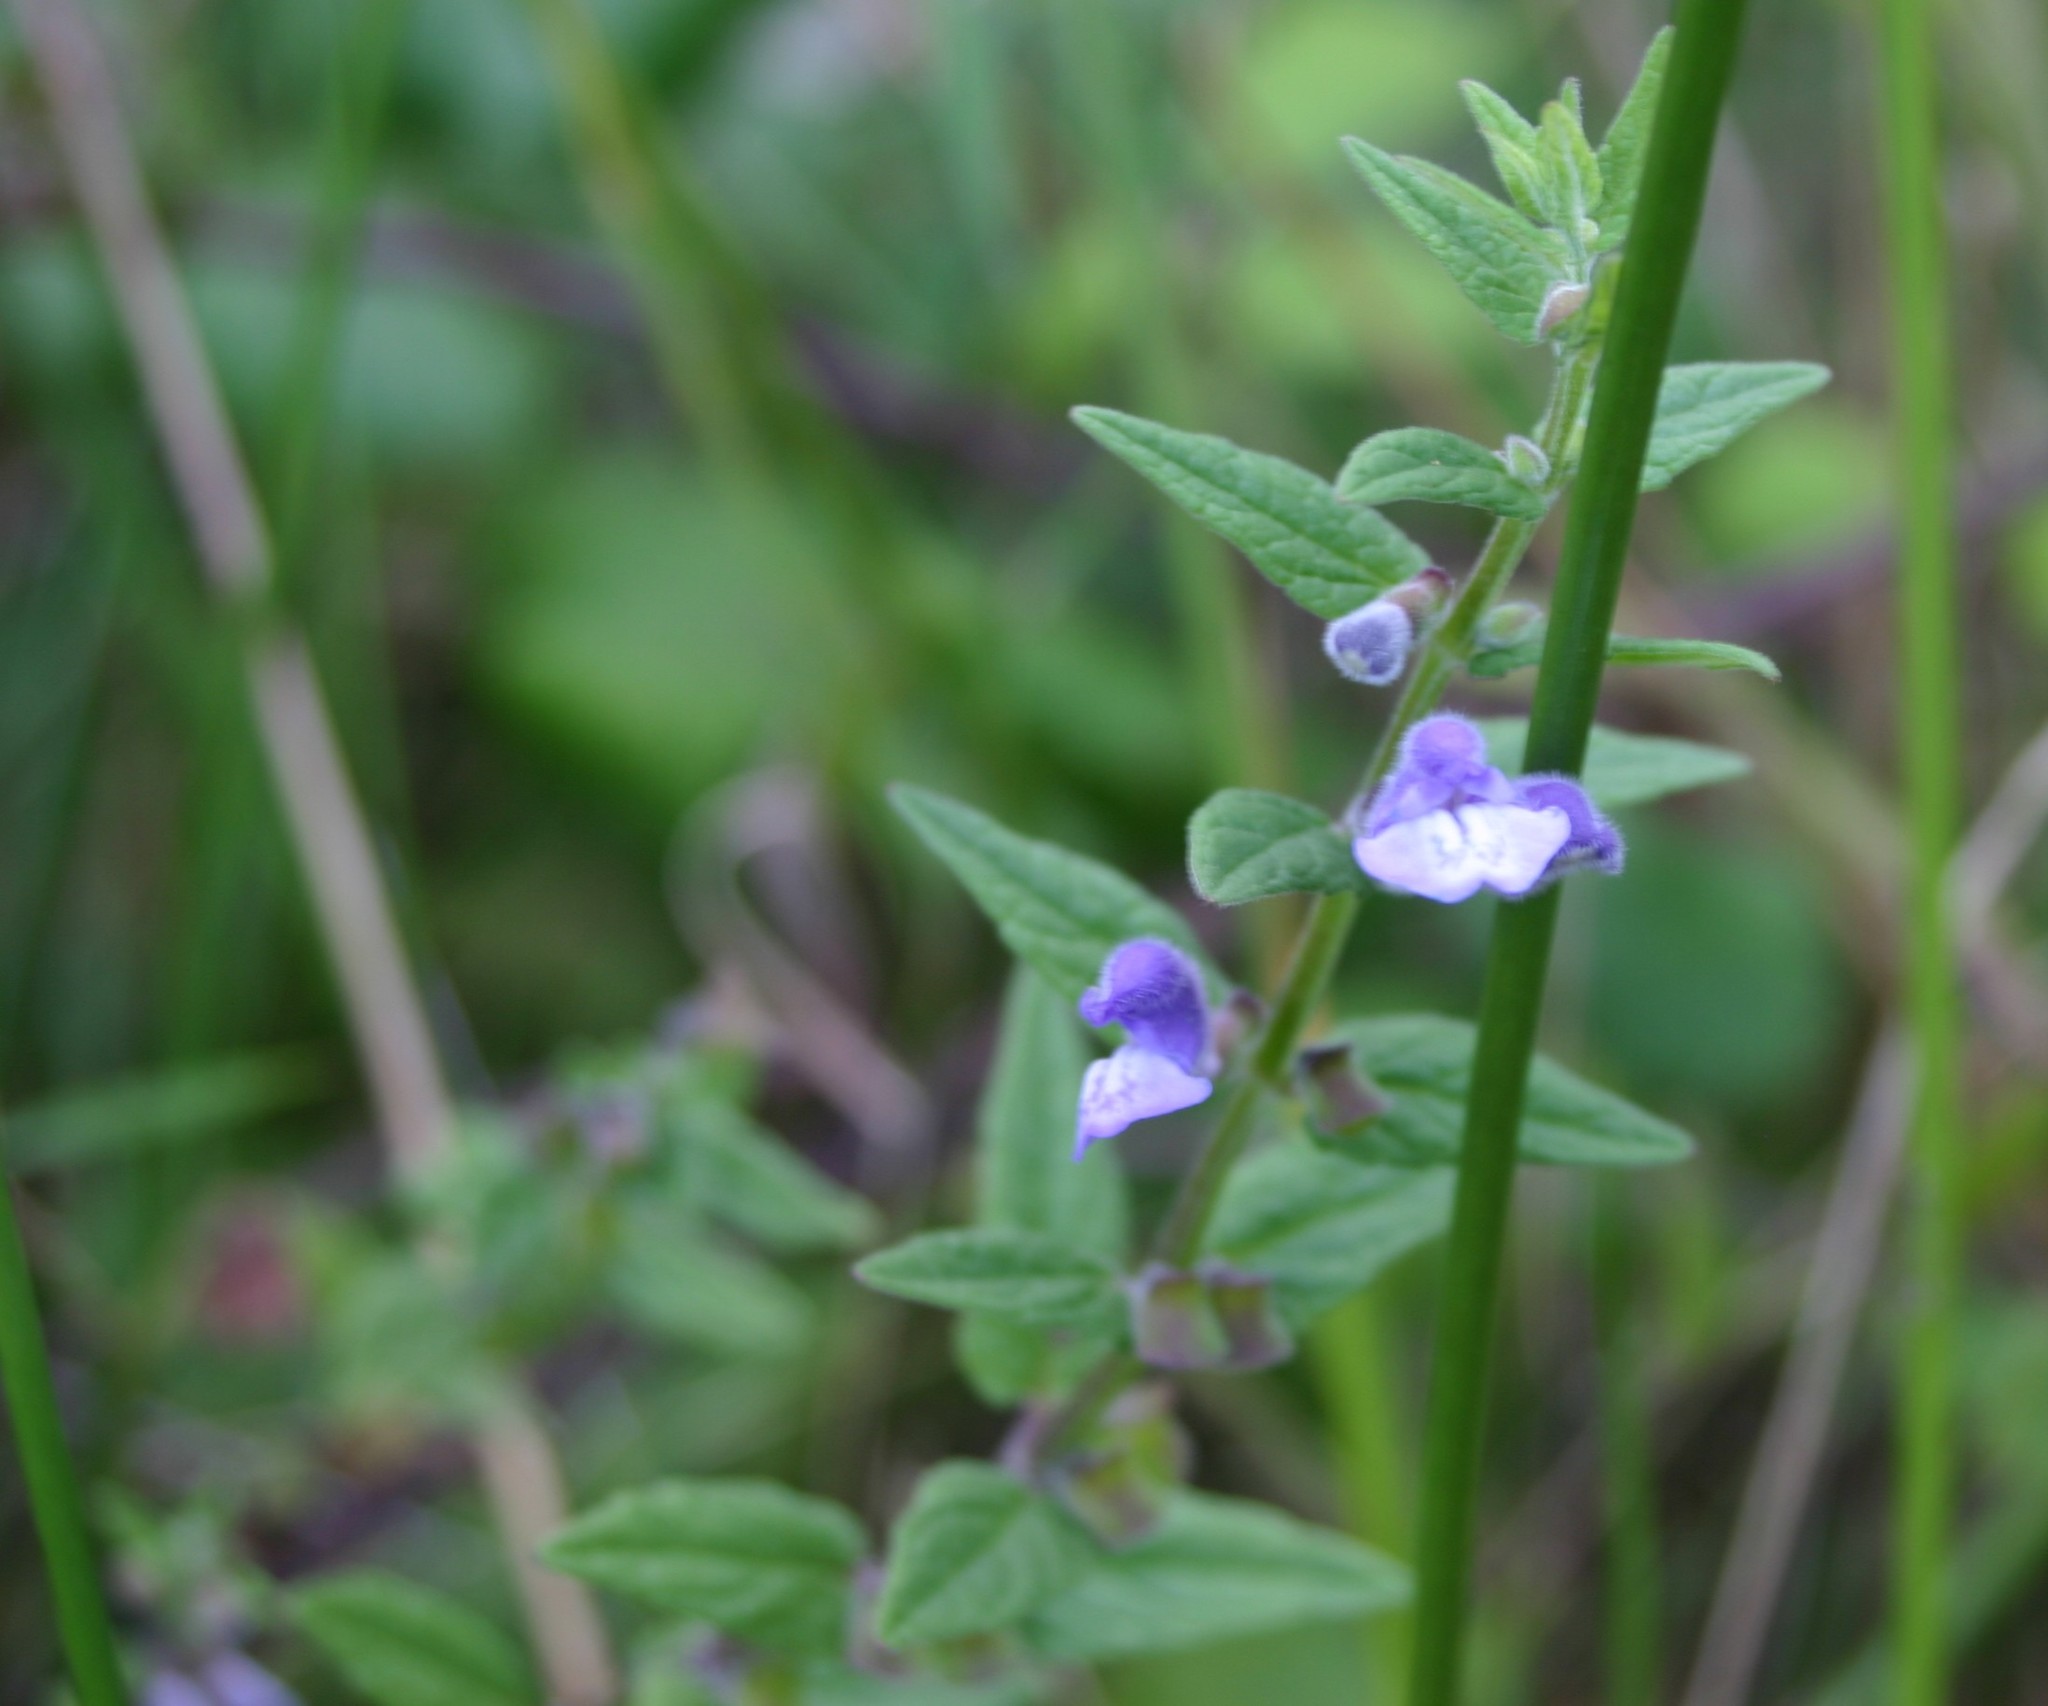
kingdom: Plantae
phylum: Tracheophyta
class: Magnoliopsida
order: Lamiales
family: Lamiaceae
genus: Scutellaria
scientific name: Scutellaria galericulata
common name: Skullcap
